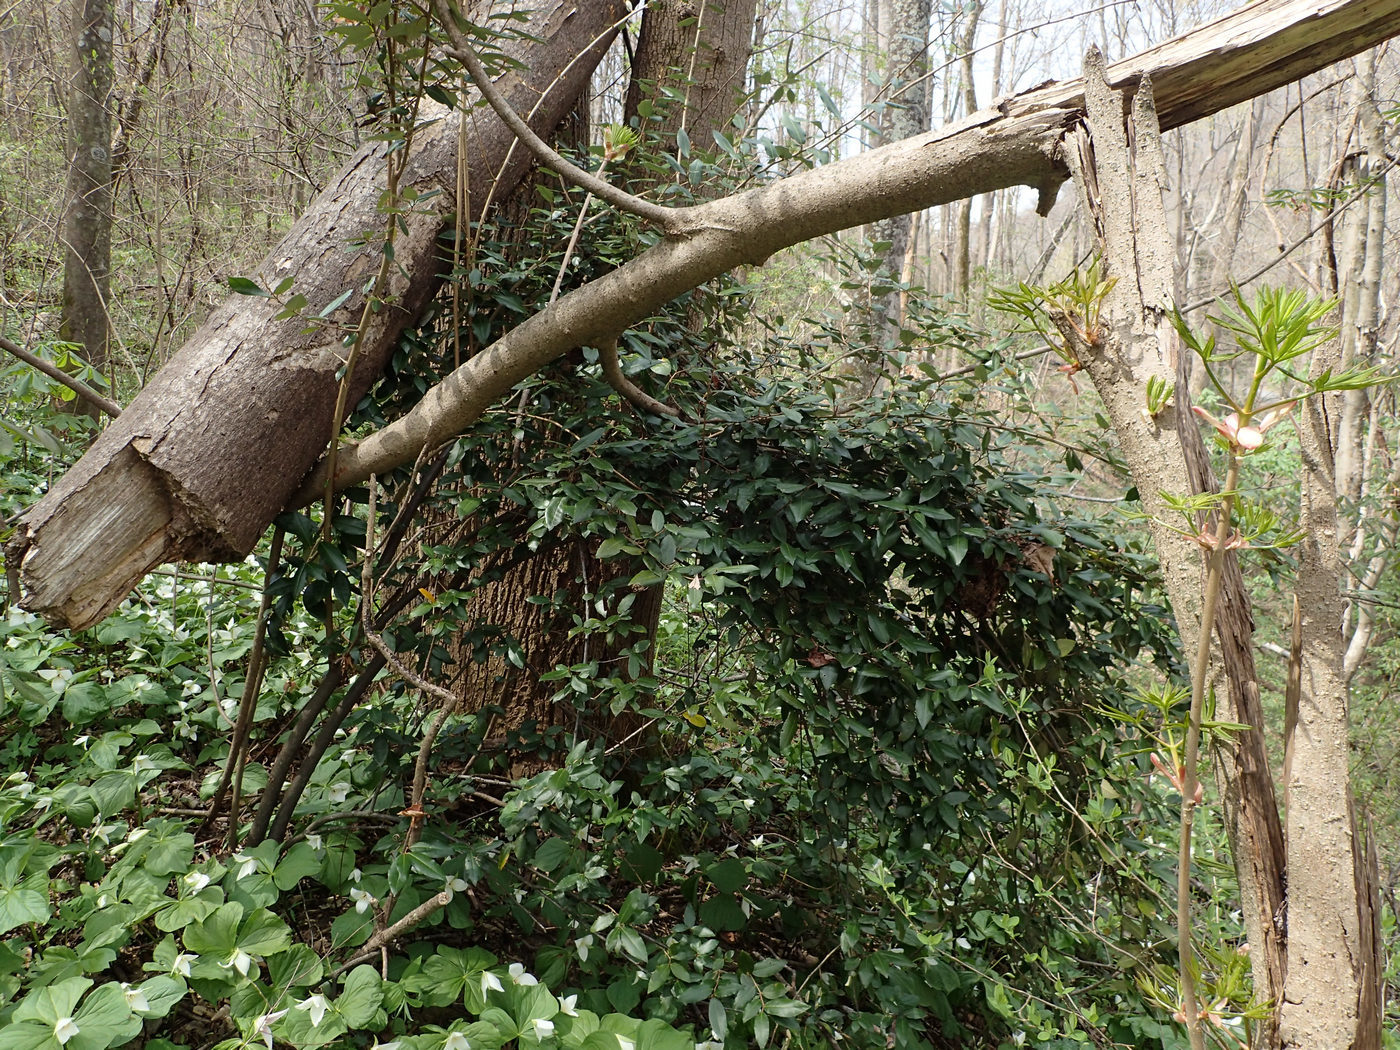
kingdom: Plantae
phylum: Tracheophyta
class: Magnoliopsida
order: Rosales
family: Elaeagnaceae
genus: Elaeagnus
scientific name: Elaeagnus pungens
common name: Spiny oleaster
